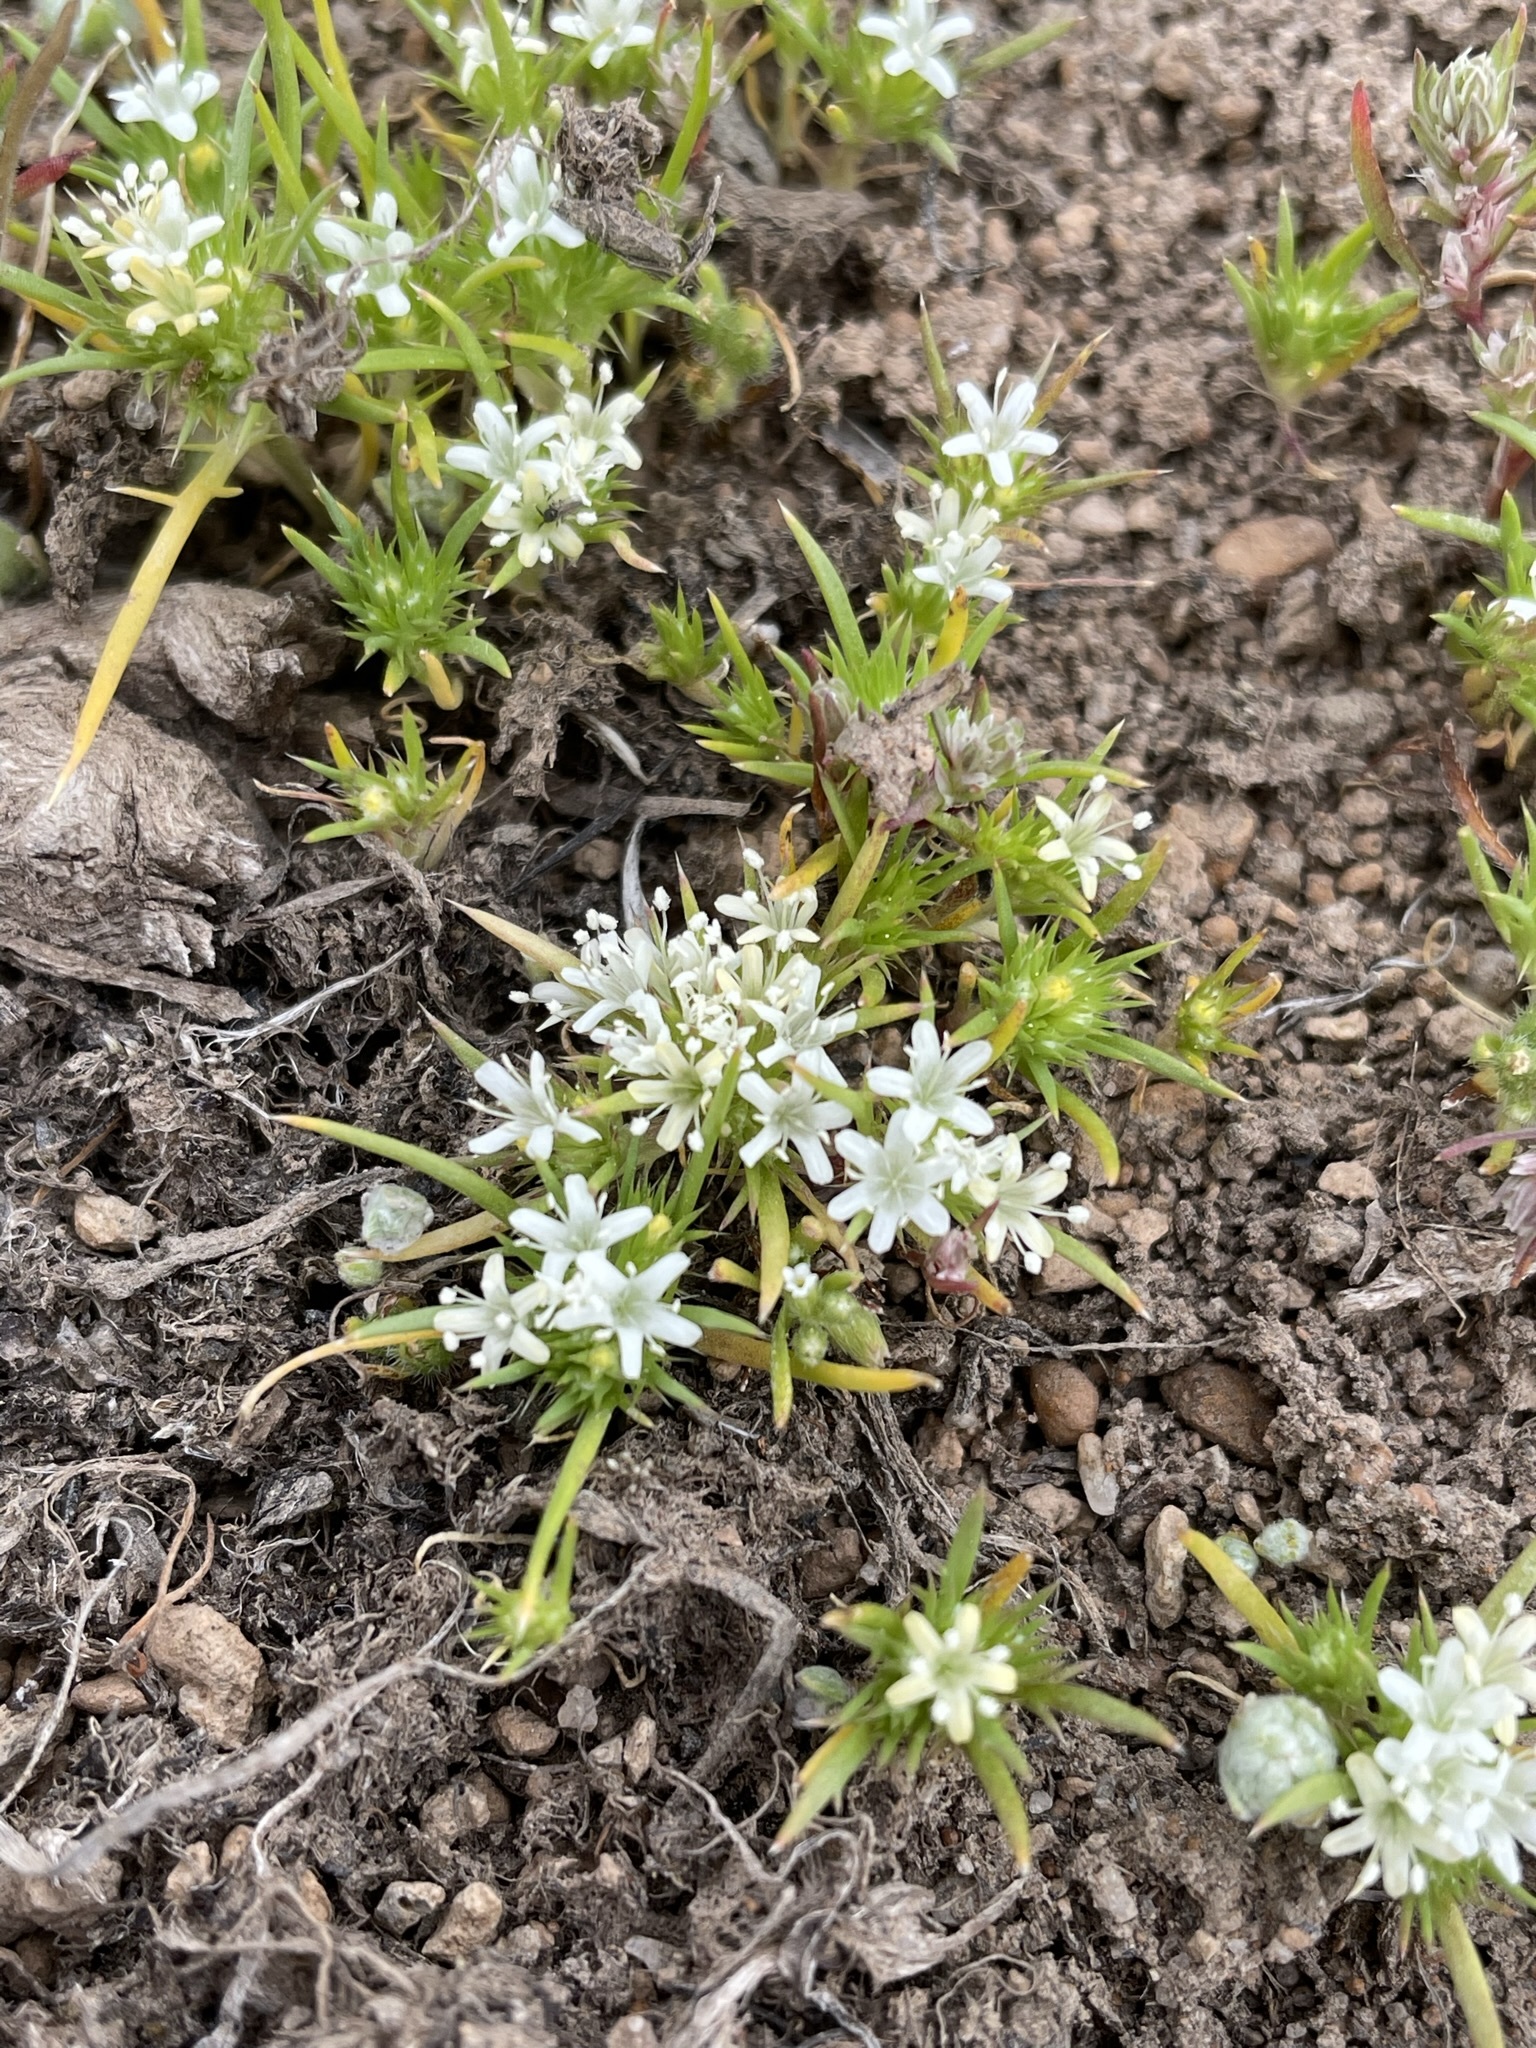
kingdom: Plantae
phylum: Tracheophyta
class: Magnoliopsida
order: Ericales
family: Polemoniaceae
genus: Navarretia
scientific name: Navarretia leucocephala
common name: White-flowered navarretia
